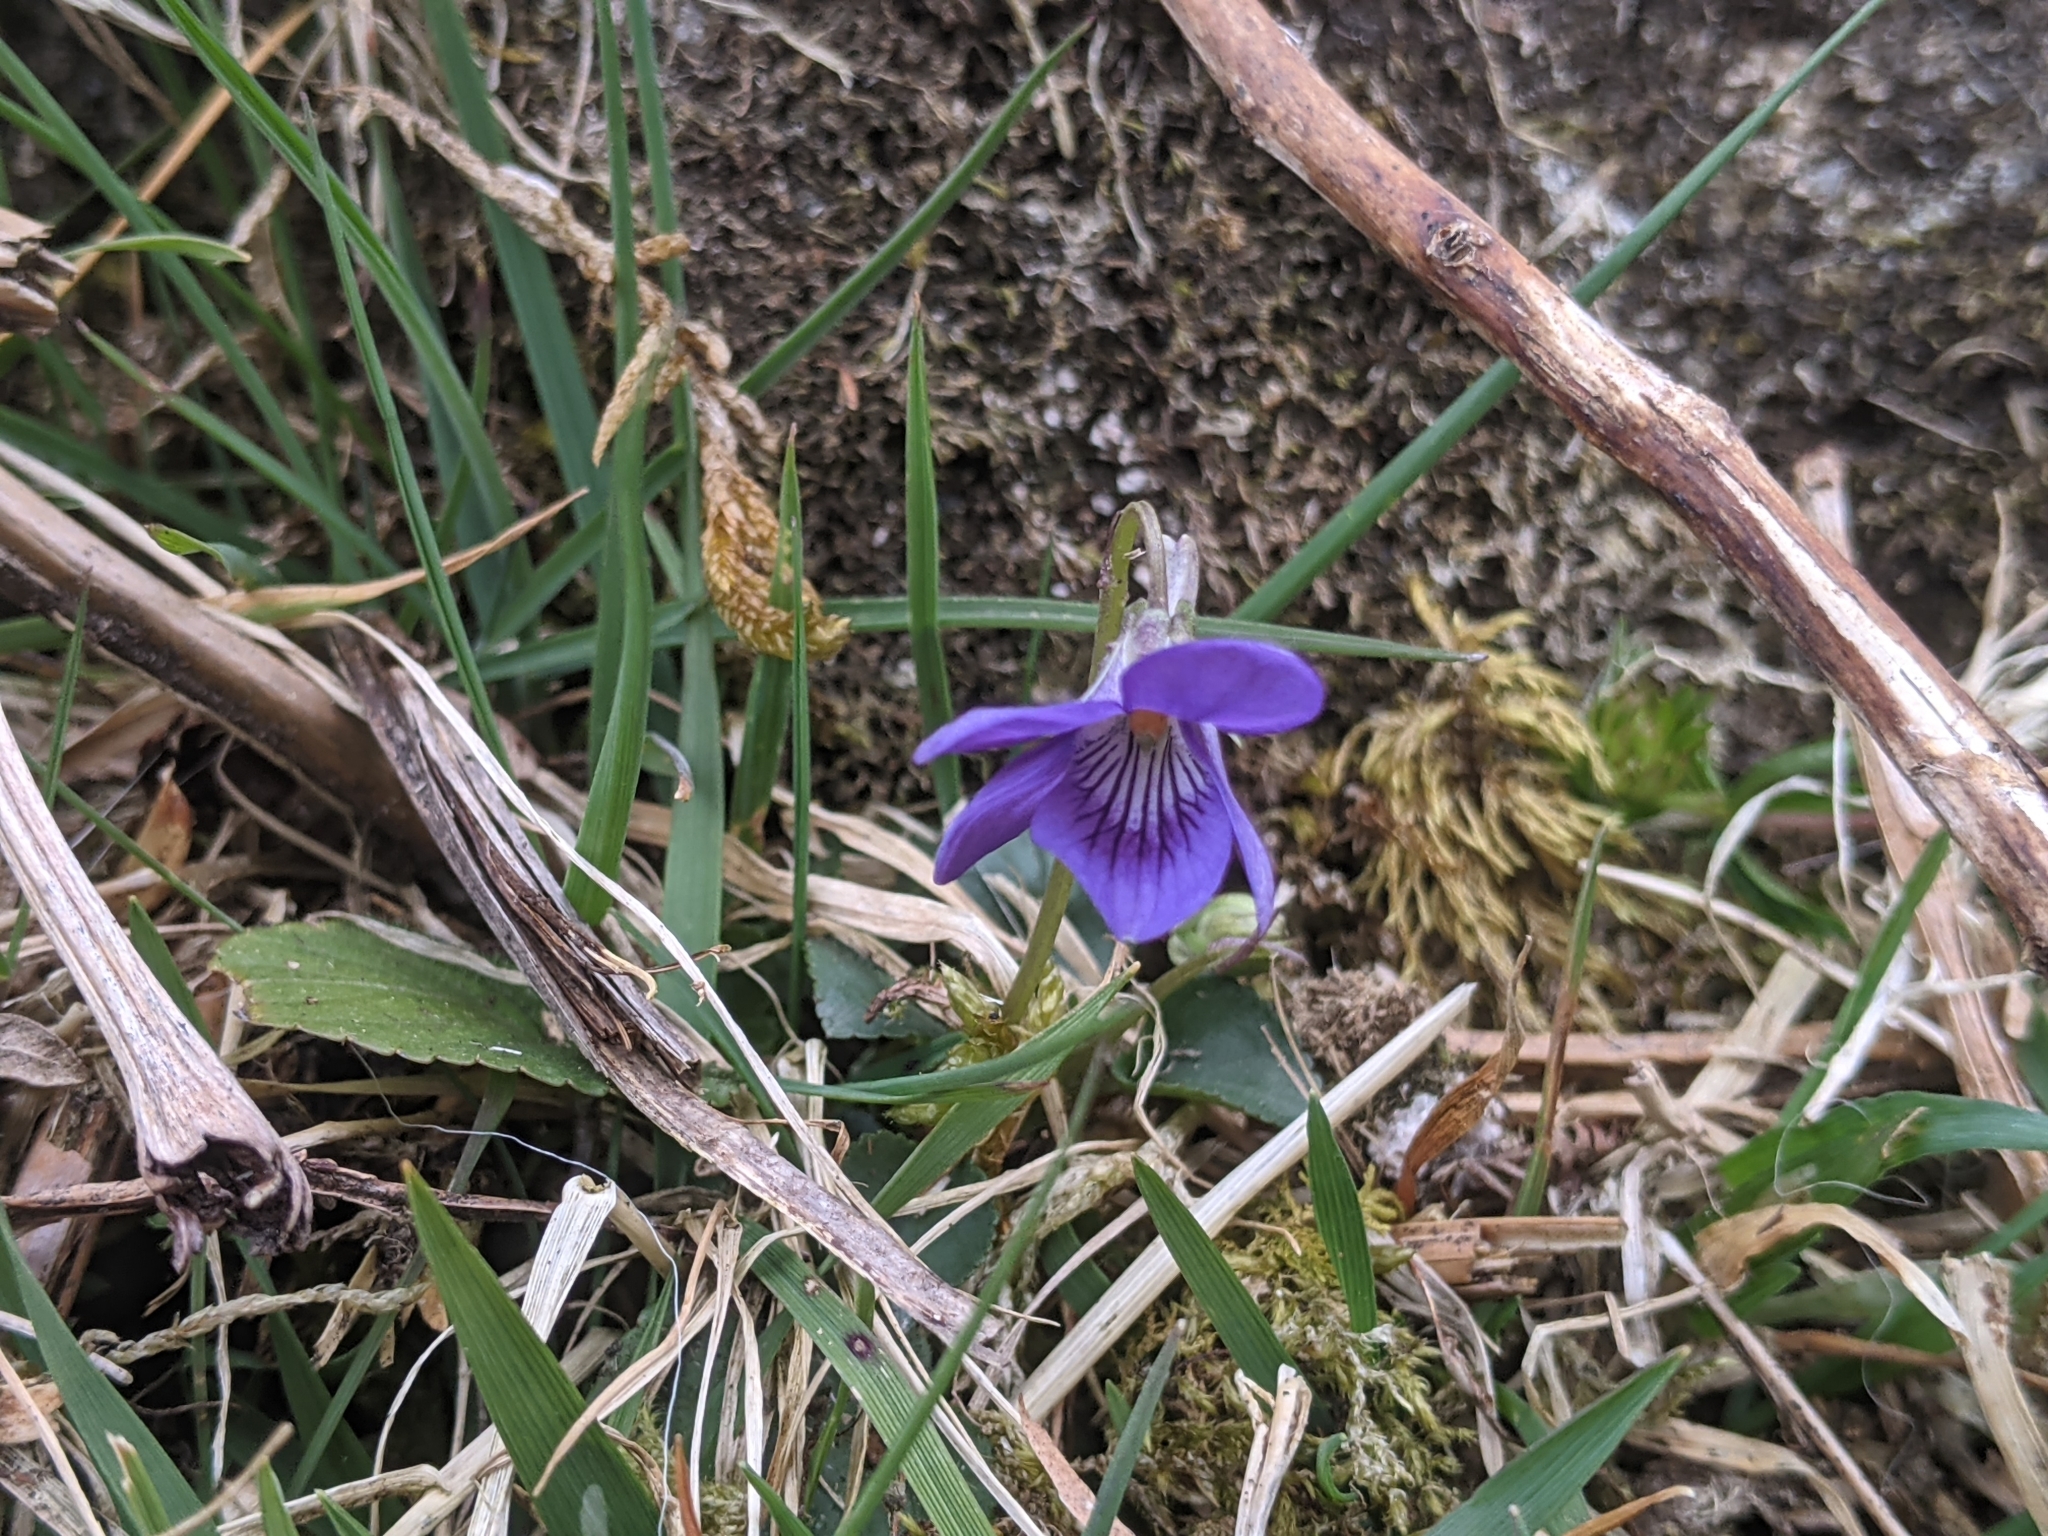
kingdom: Plantae
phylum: Tracheophyta
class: Magnoliopsida
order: Malpighiales
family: Violaceae
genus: Viola
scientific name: Viola riviniana
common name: Common dog-violet
